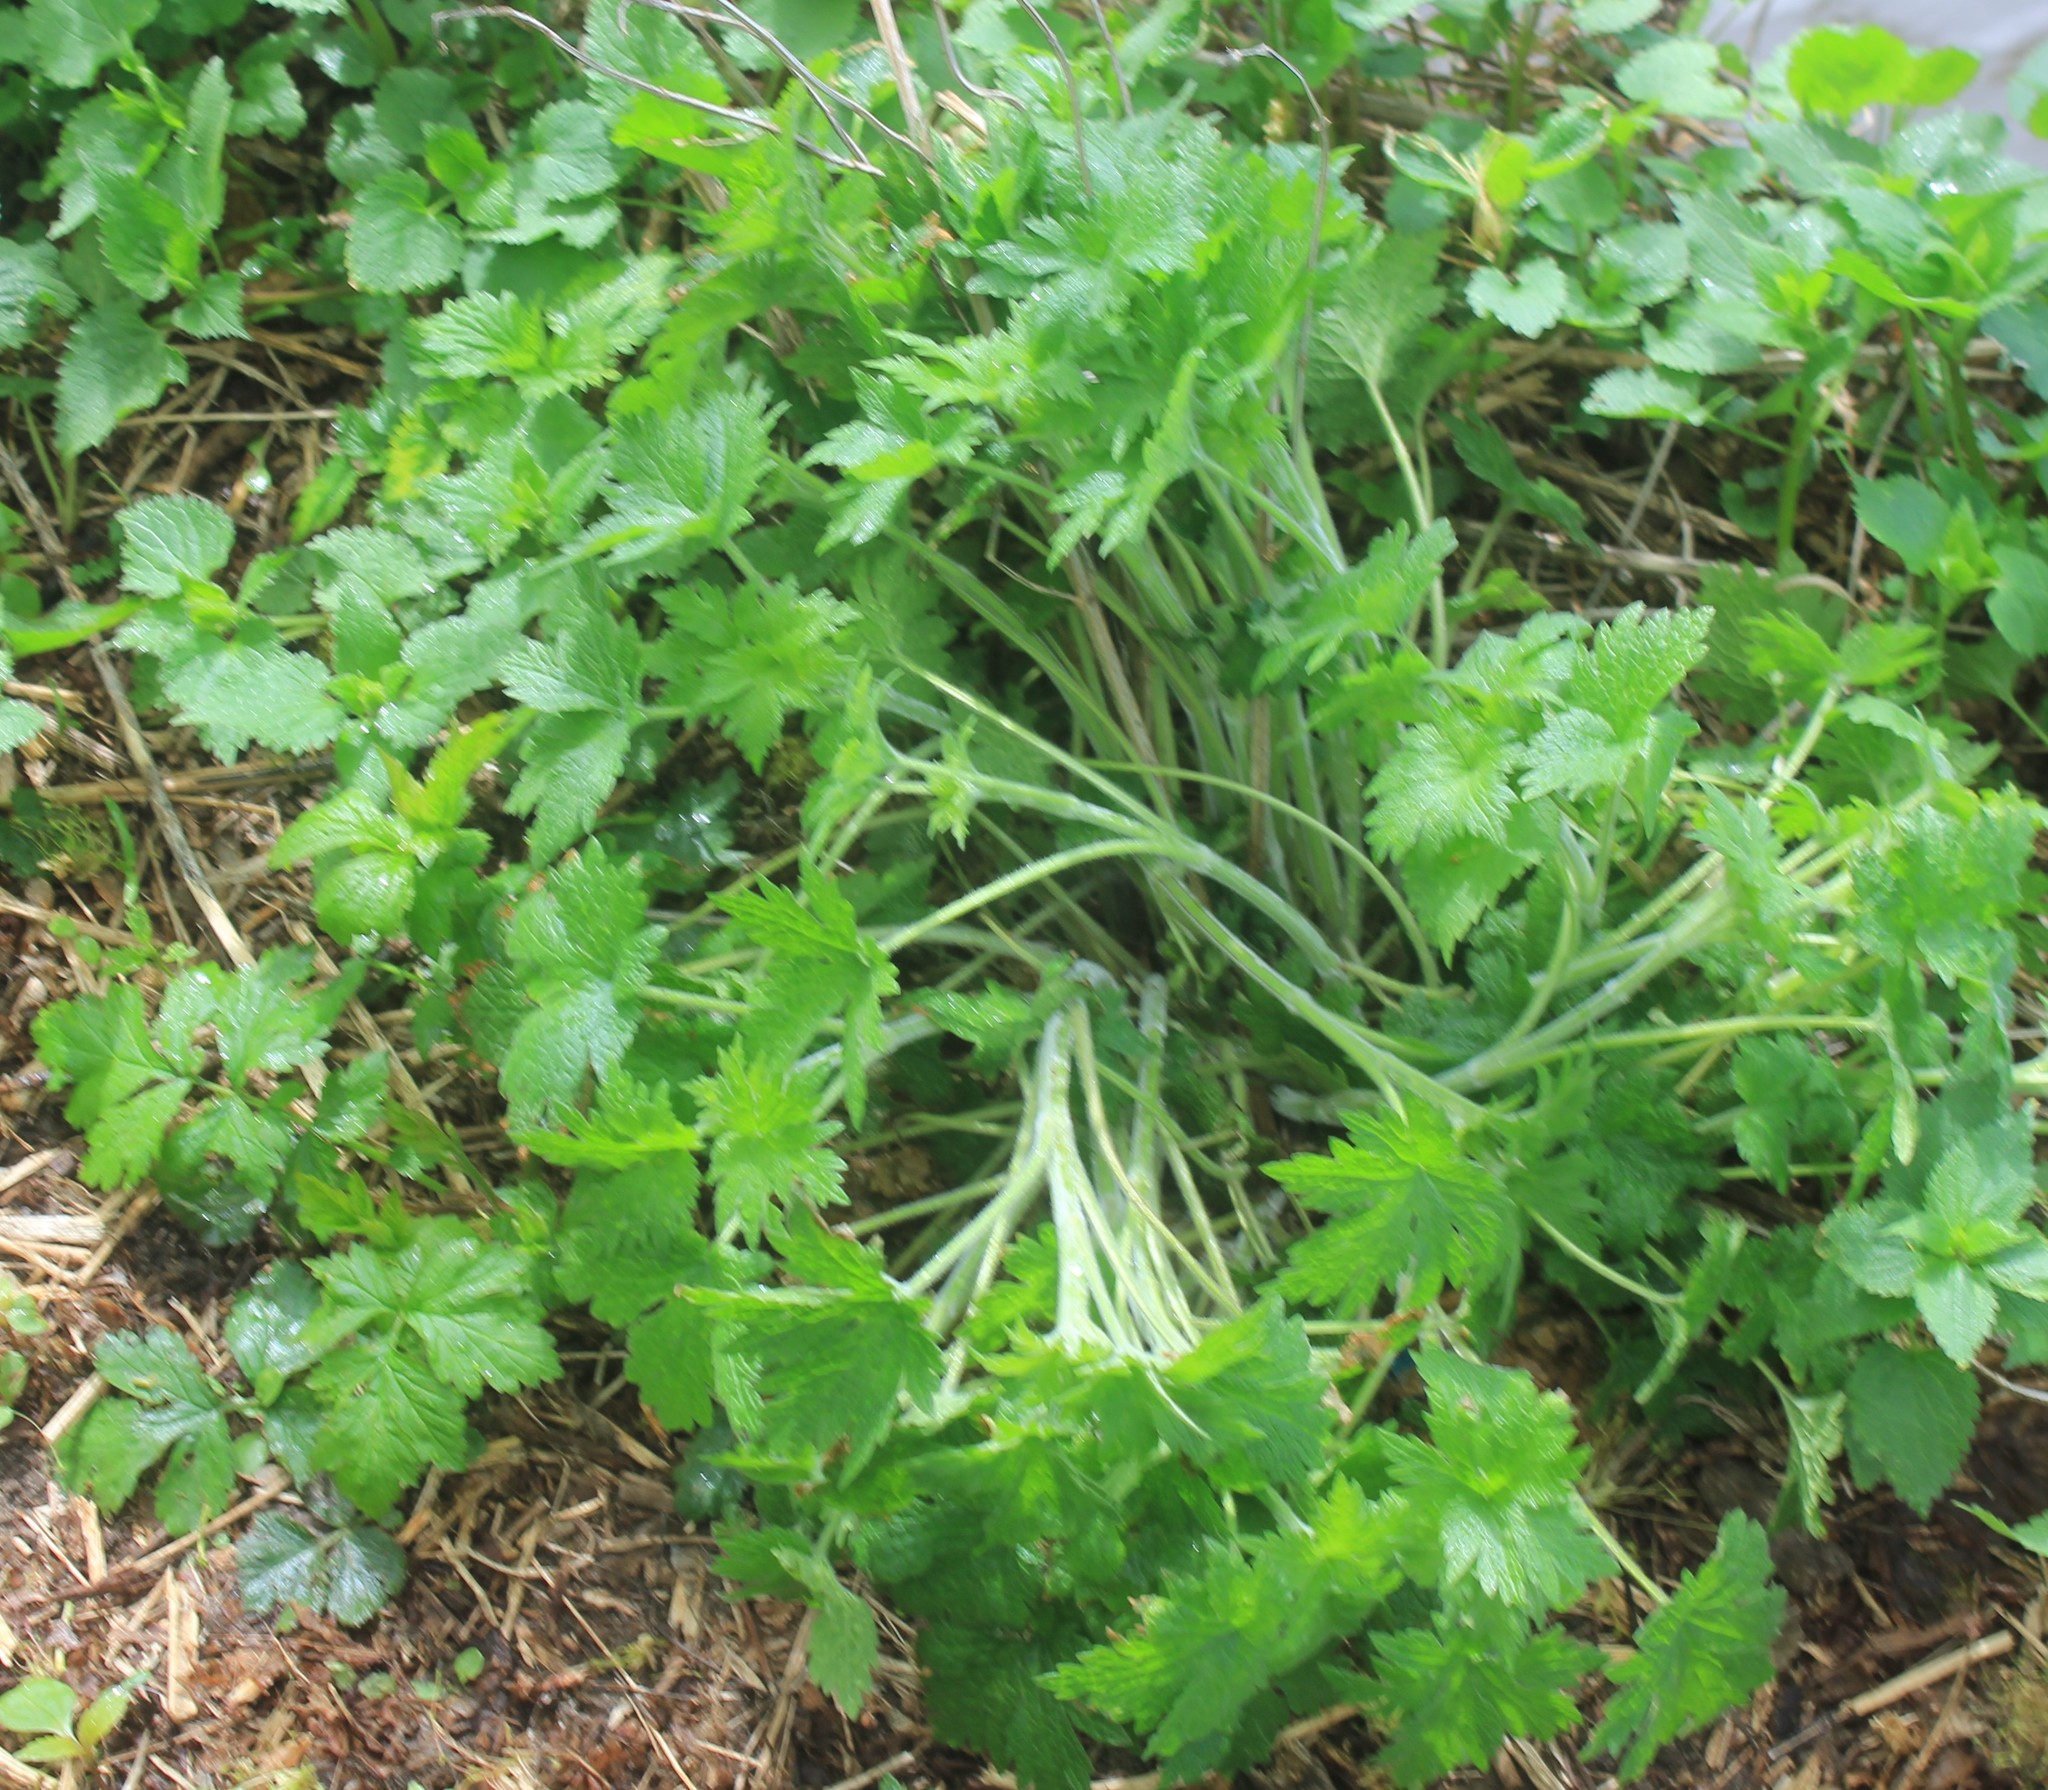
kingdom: Plantae
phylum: Tracheophyta
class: Magnoliopsida
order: Lamiales
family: Lamiaceae
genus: Leonurus
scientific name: Leonurus quinquelobatus
